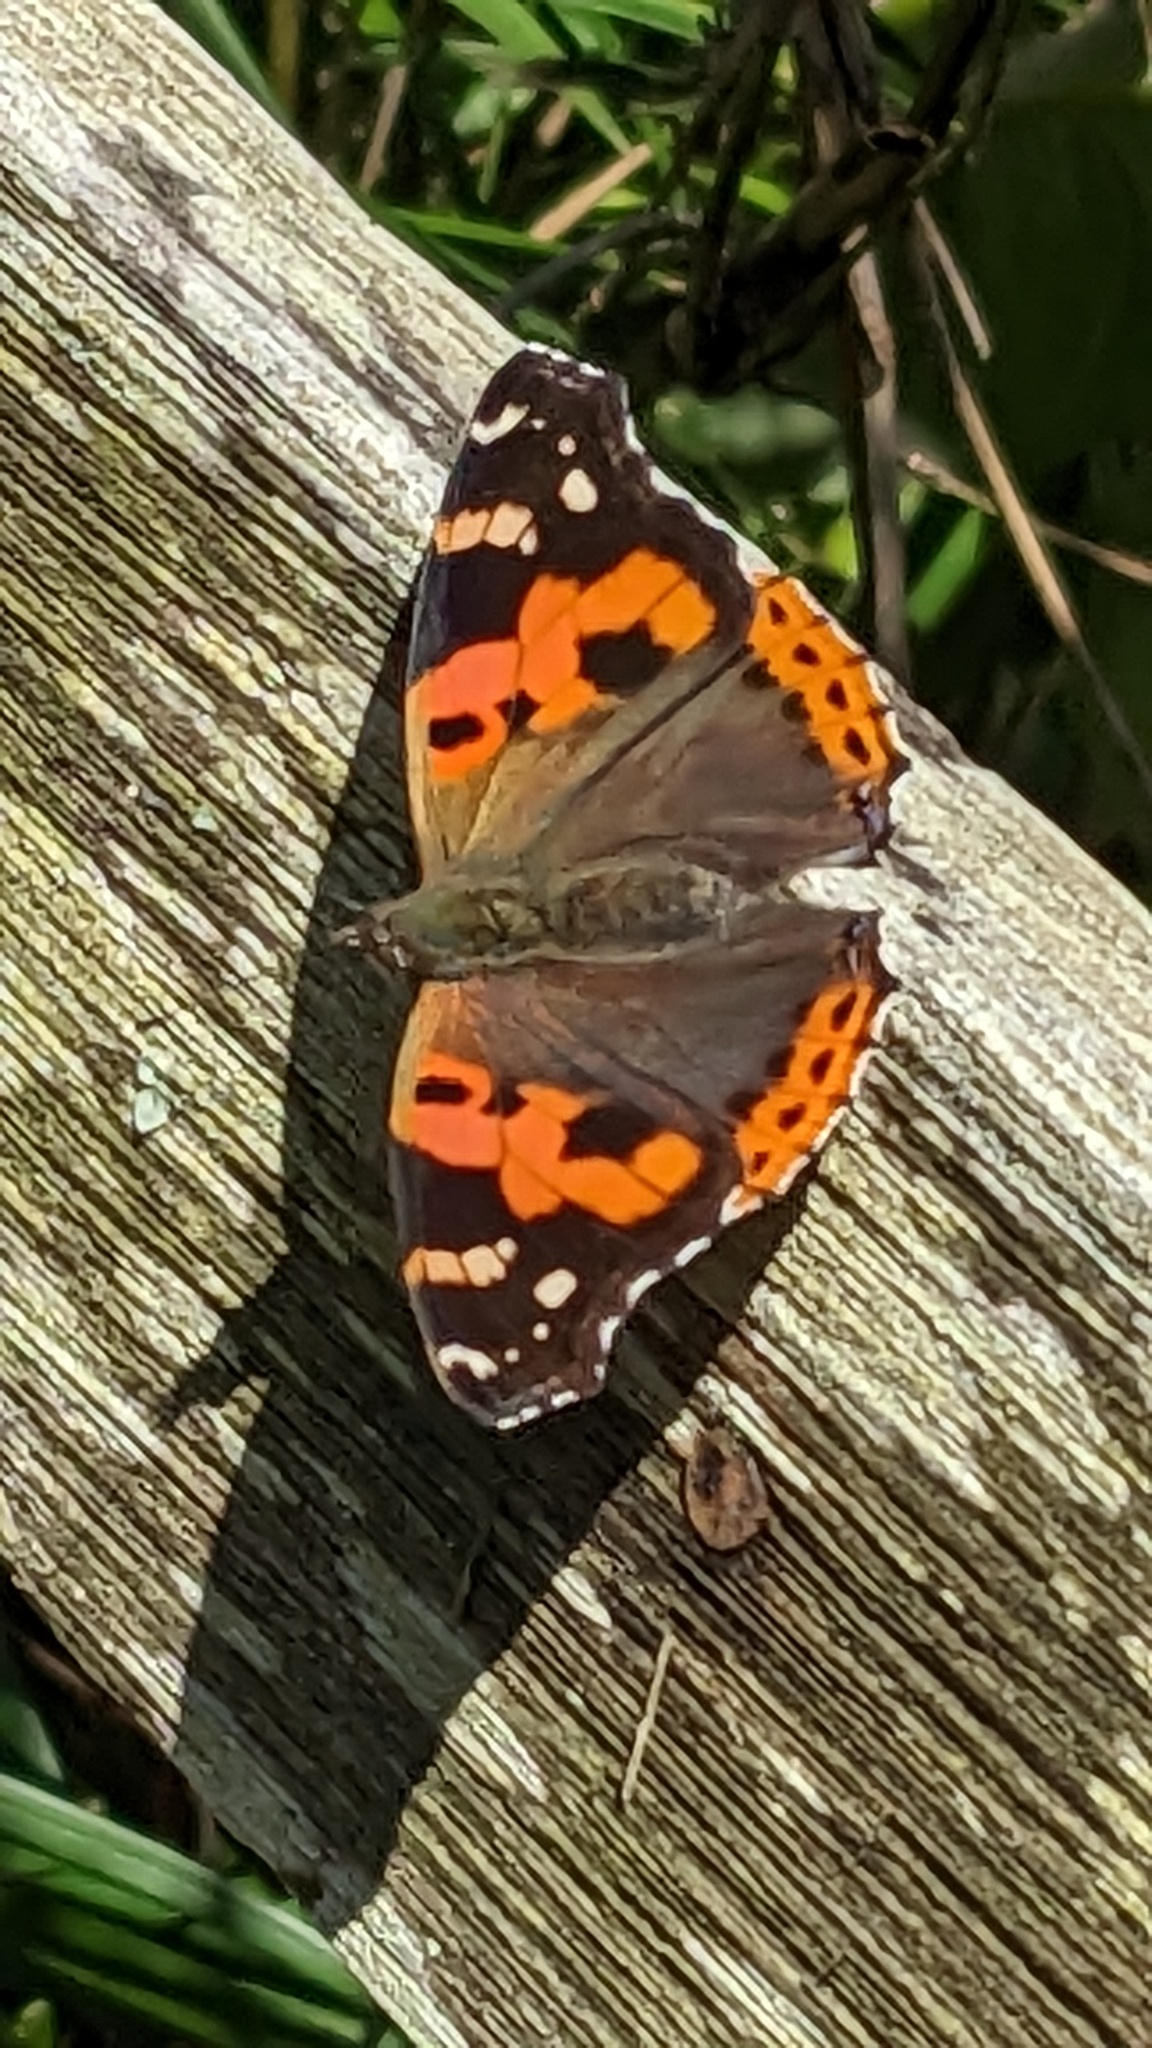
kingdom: Animalia
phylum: Arthropoda
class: Insecta
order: Lepidoptera
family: Nymphalidae
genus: Vanessa
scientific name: Vanessa indica
